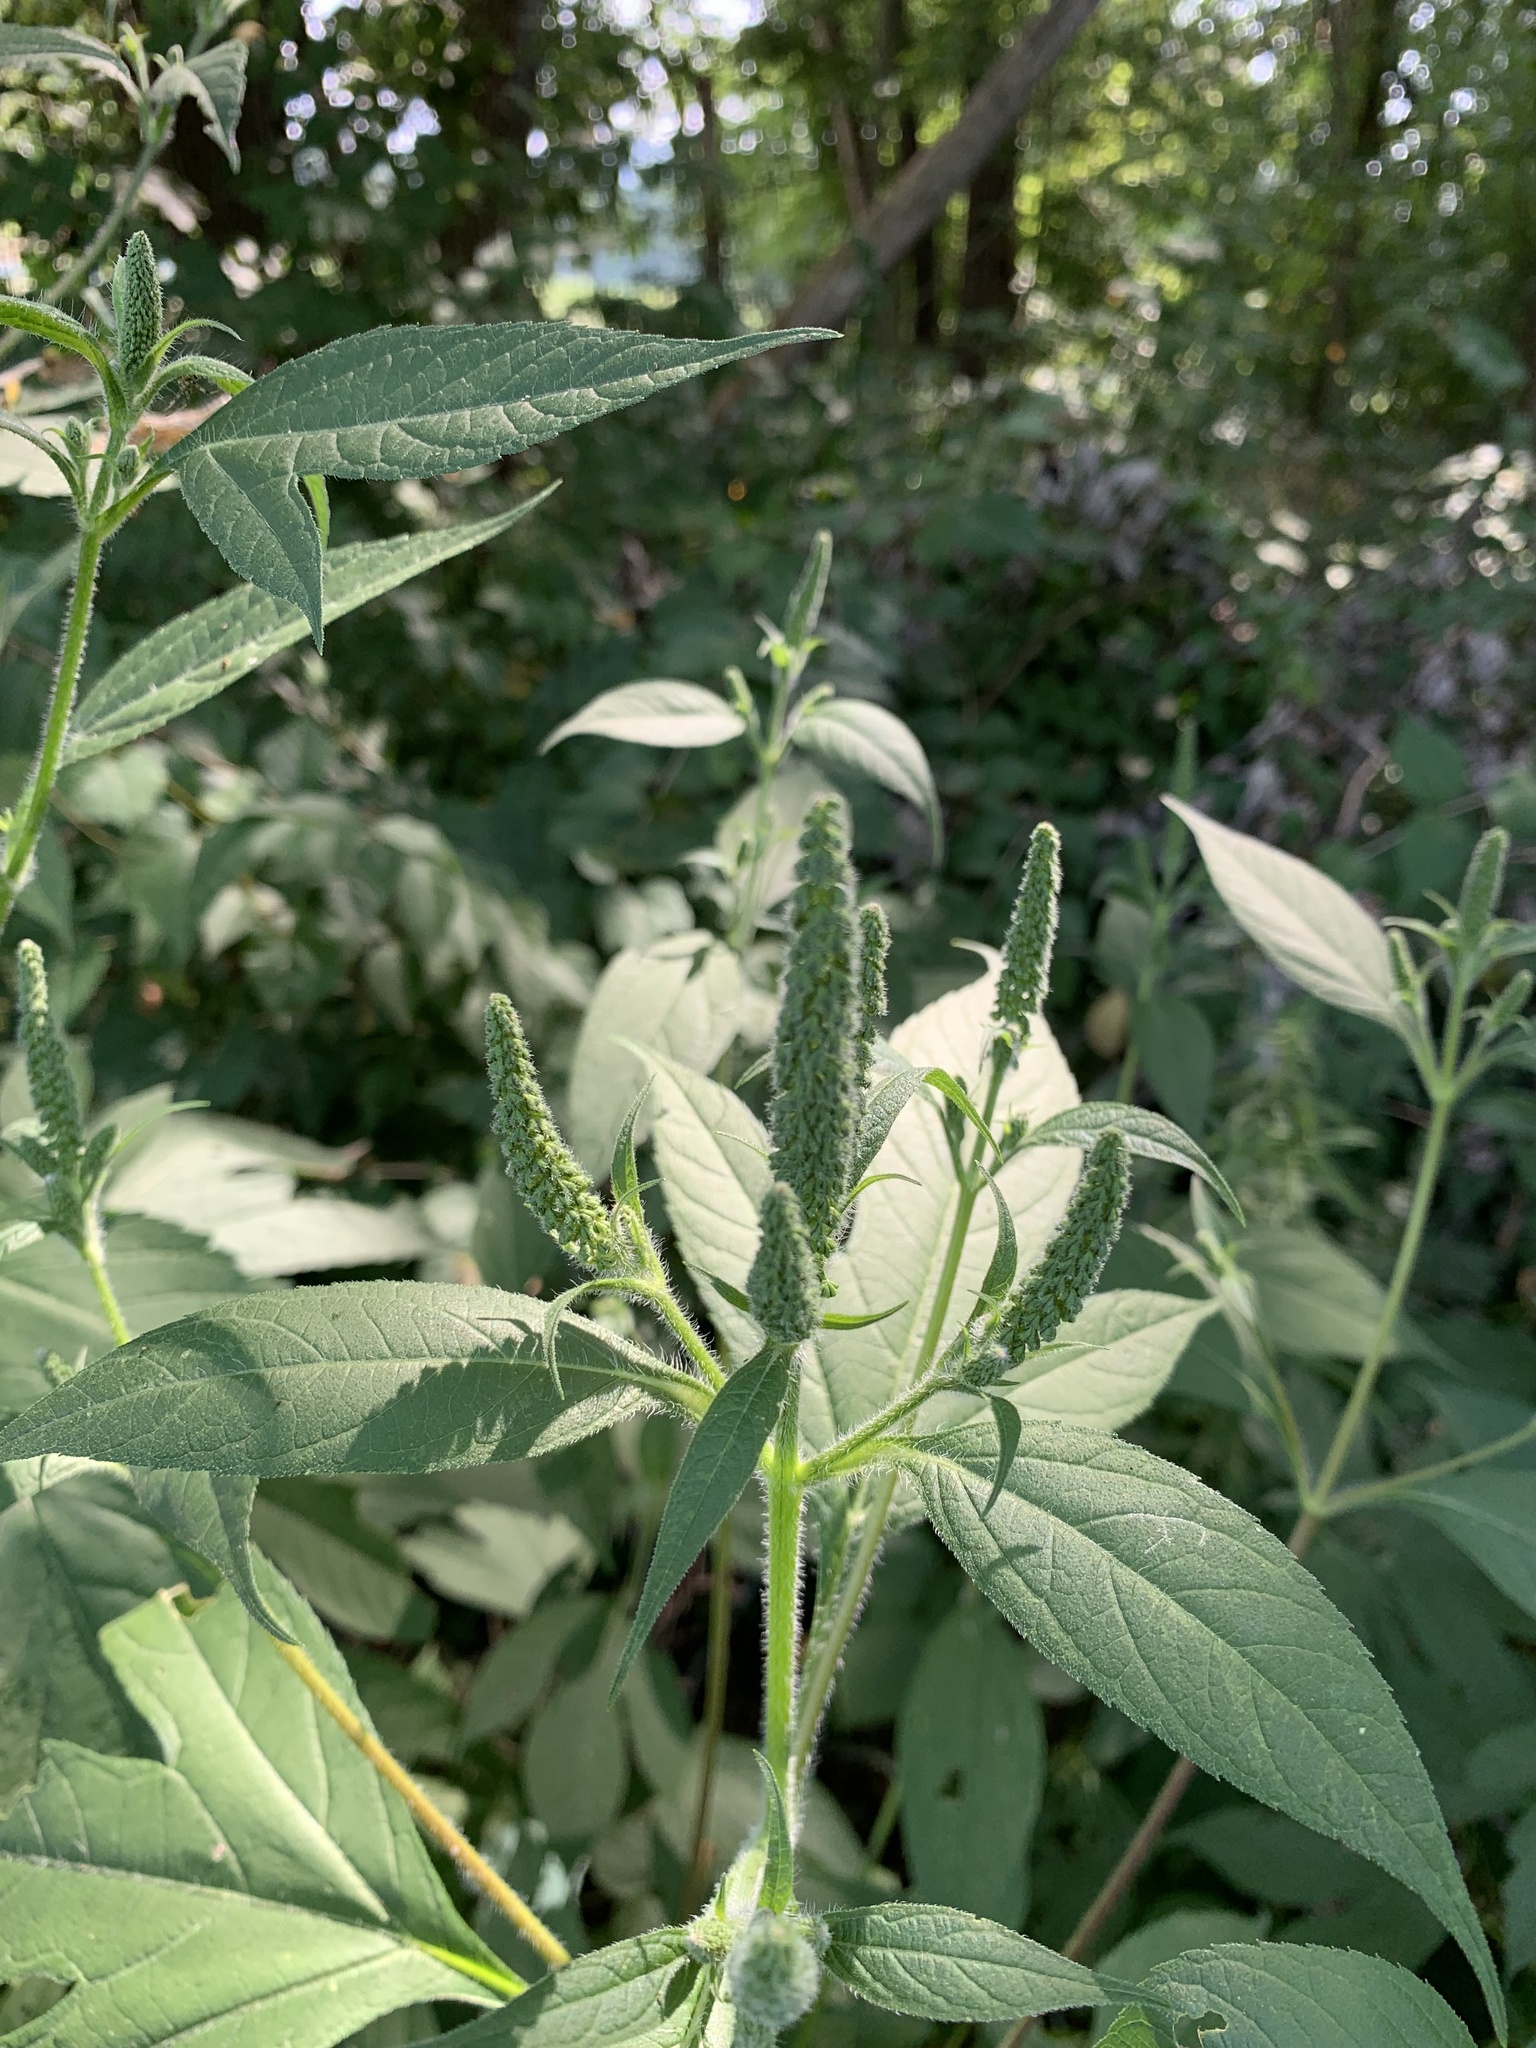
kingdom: Plantae
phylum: Tracheophyta
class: Magnoliopsida
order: Asterales
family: Asteraceae
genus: Ambrosia
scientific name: Ambrosia trifida
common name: Giant ragweed
